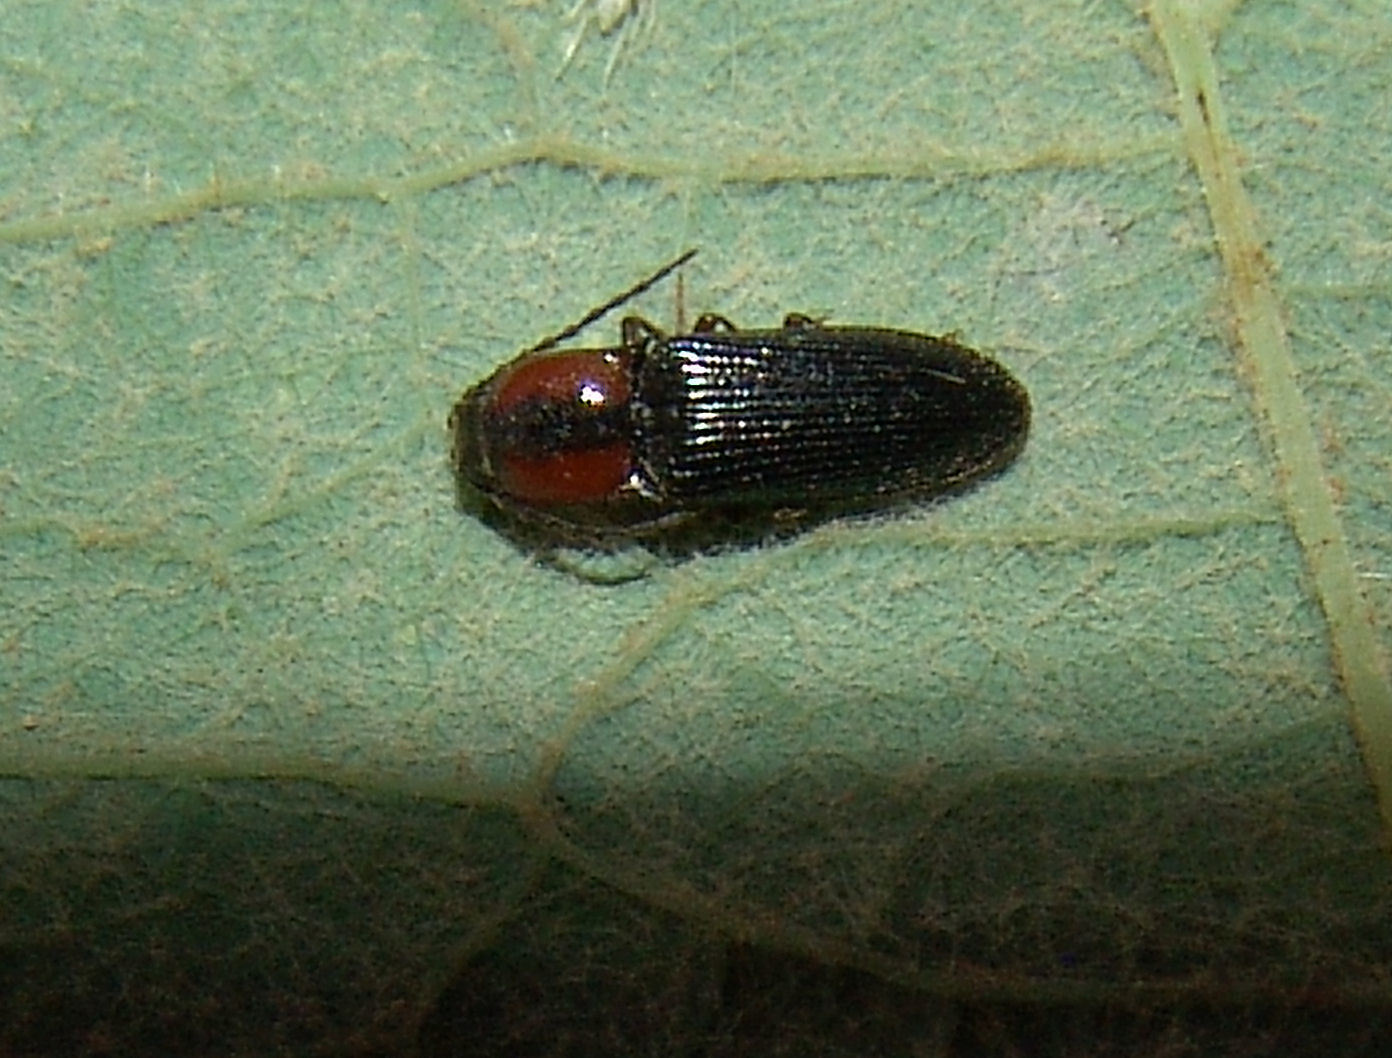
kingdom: Animalia
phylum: Arthropoda
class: Insecta
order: Coleoptera
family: Curculionidae
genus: Brownia
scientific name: Brownia
